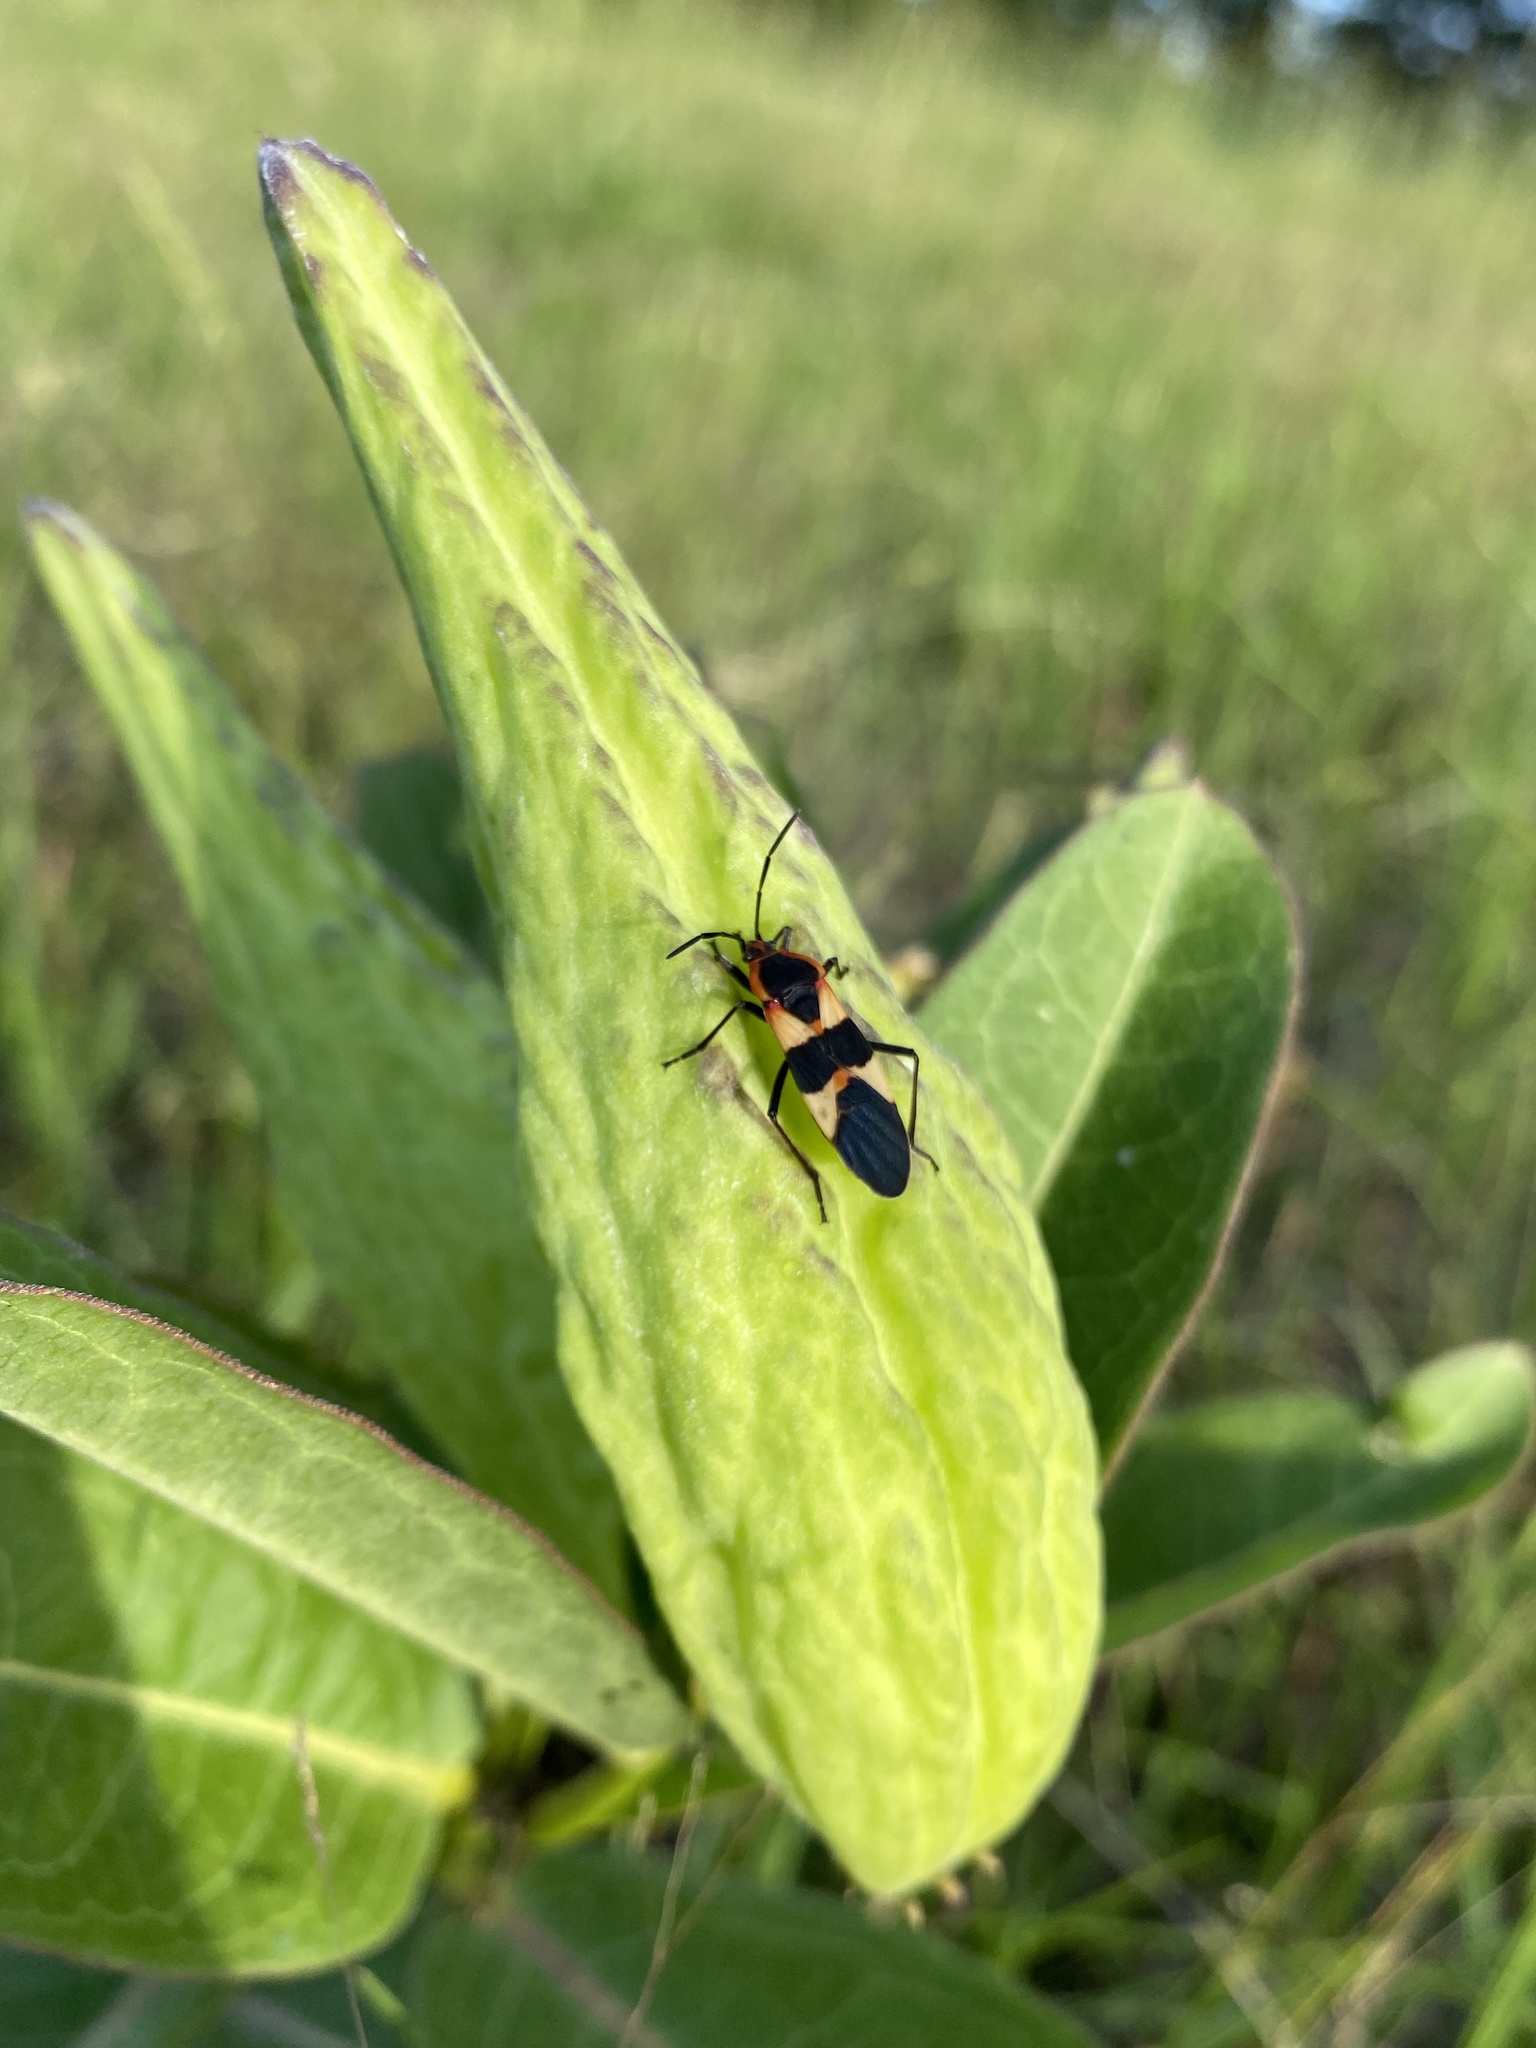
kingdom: Animalia
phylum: Arthropoda
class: Insecta
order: Hemiptera
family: Lygaeidae
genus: Oncopeltus
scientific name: Oncopeltus fasciatus
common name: Large milkweed bug
